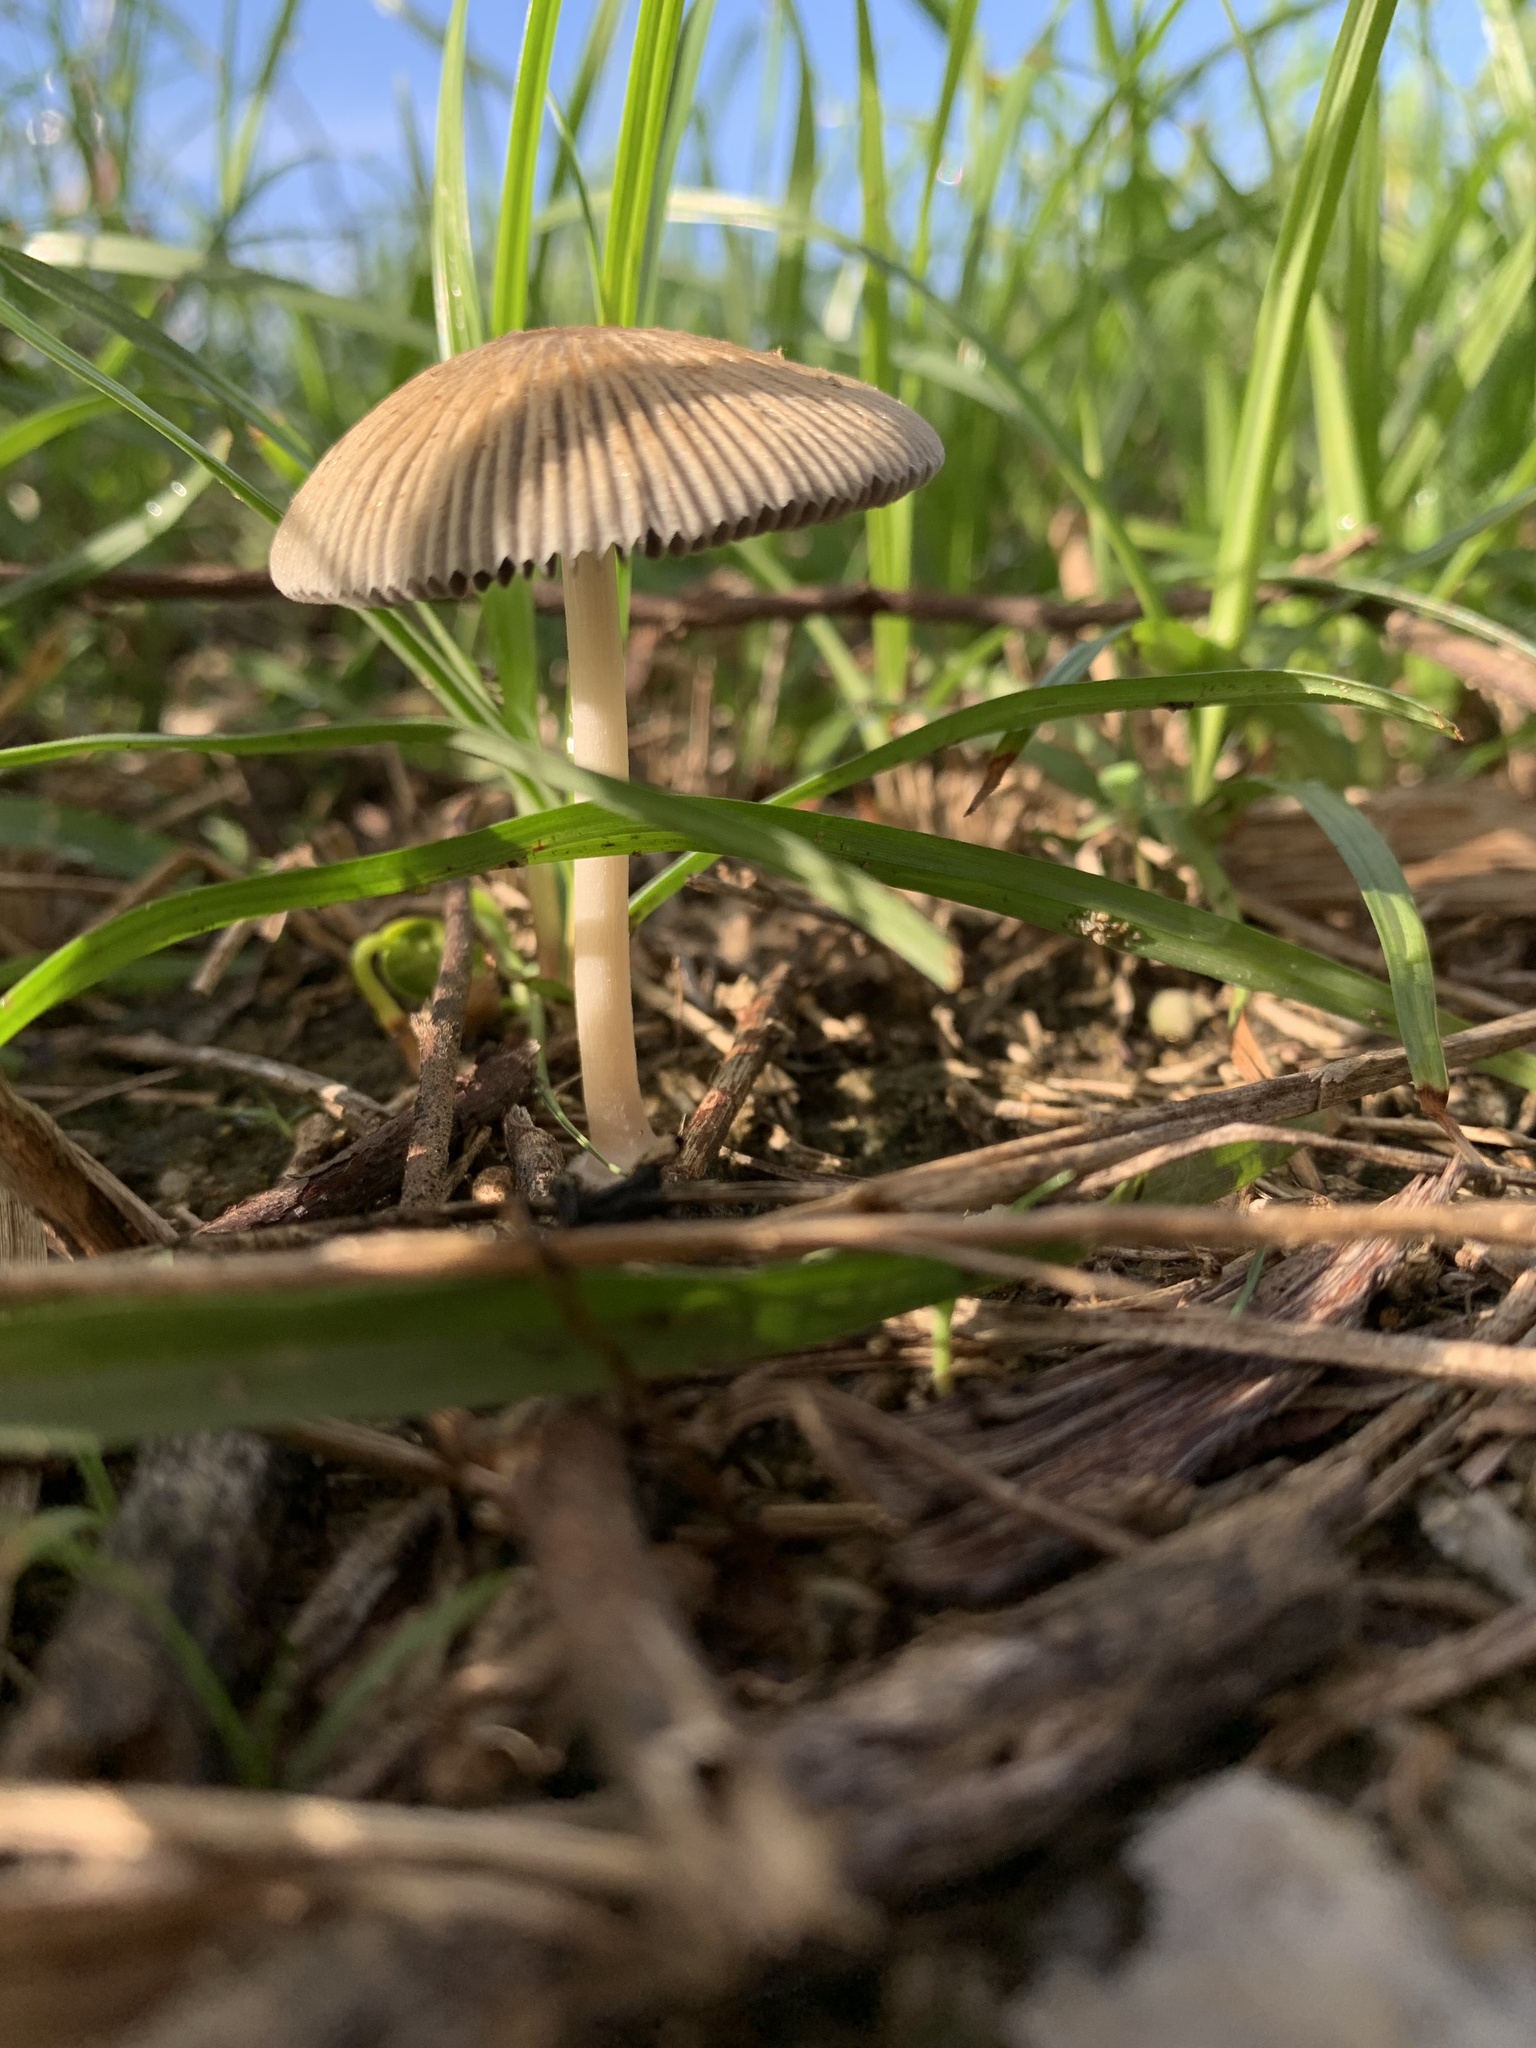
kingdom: Fungi
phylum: Basidiomycota
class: Agaricomycetes
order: Agaricales
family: Psathyrellaceae
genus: Parasola
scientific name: Parasola auricoma
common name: Goldenhaired inkcap
